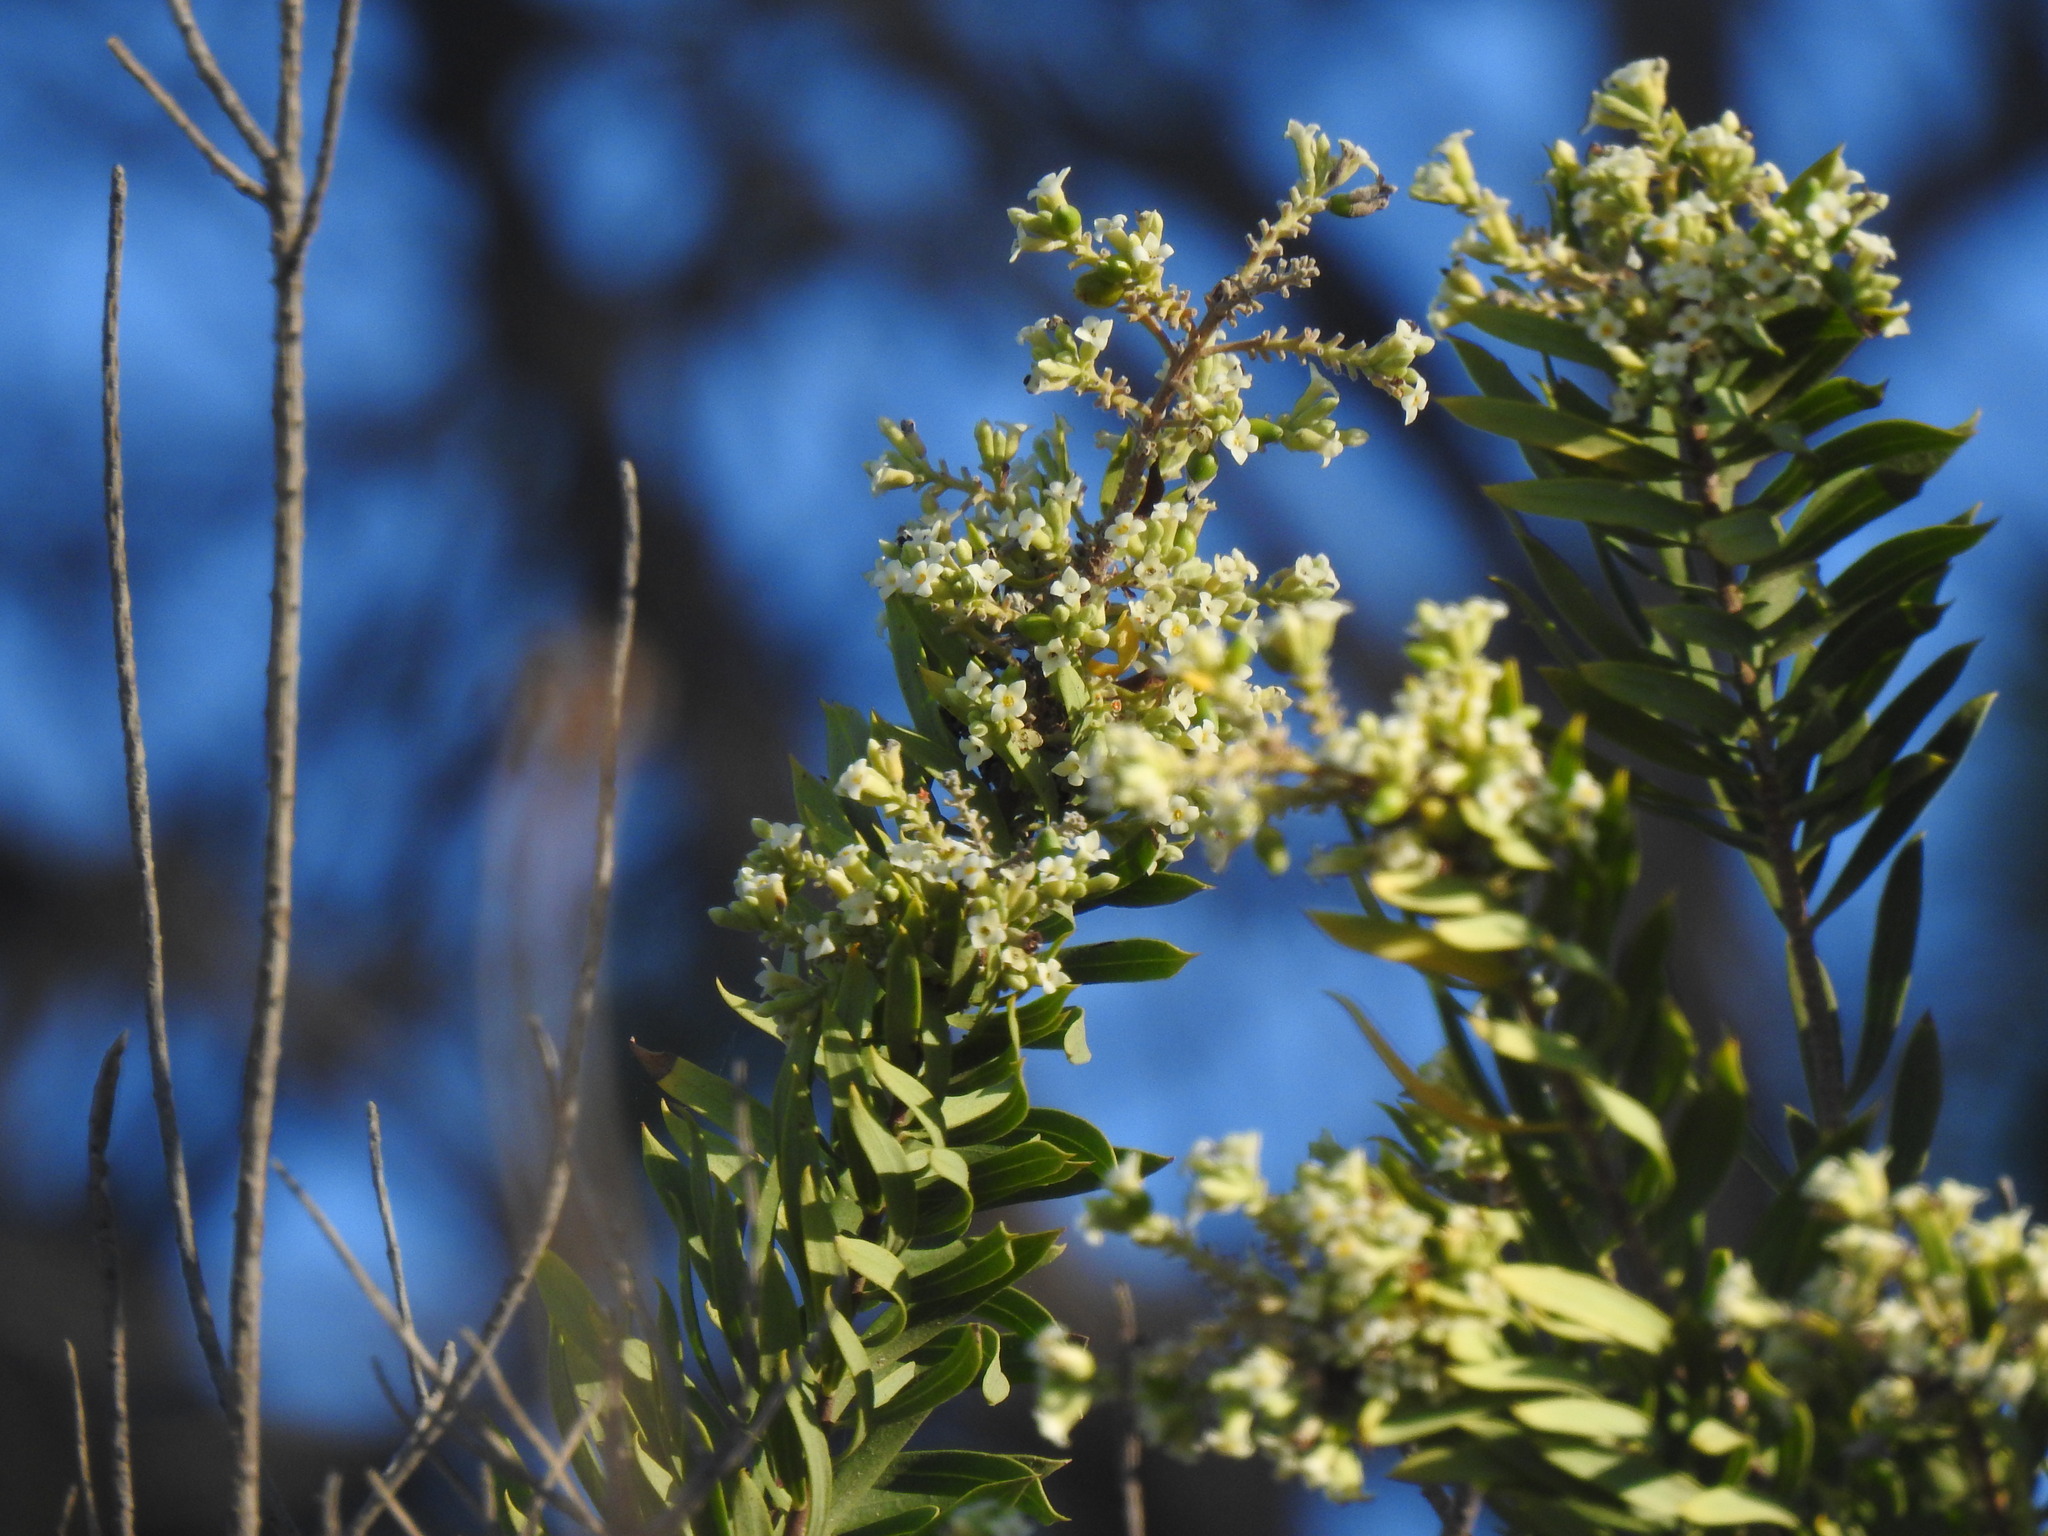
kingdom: Plantae
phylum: Tracheophyta
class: Magnoliopsida
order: Malvales
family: Thymelaeaceae
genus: Daphne
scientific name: Daphne gnidium
